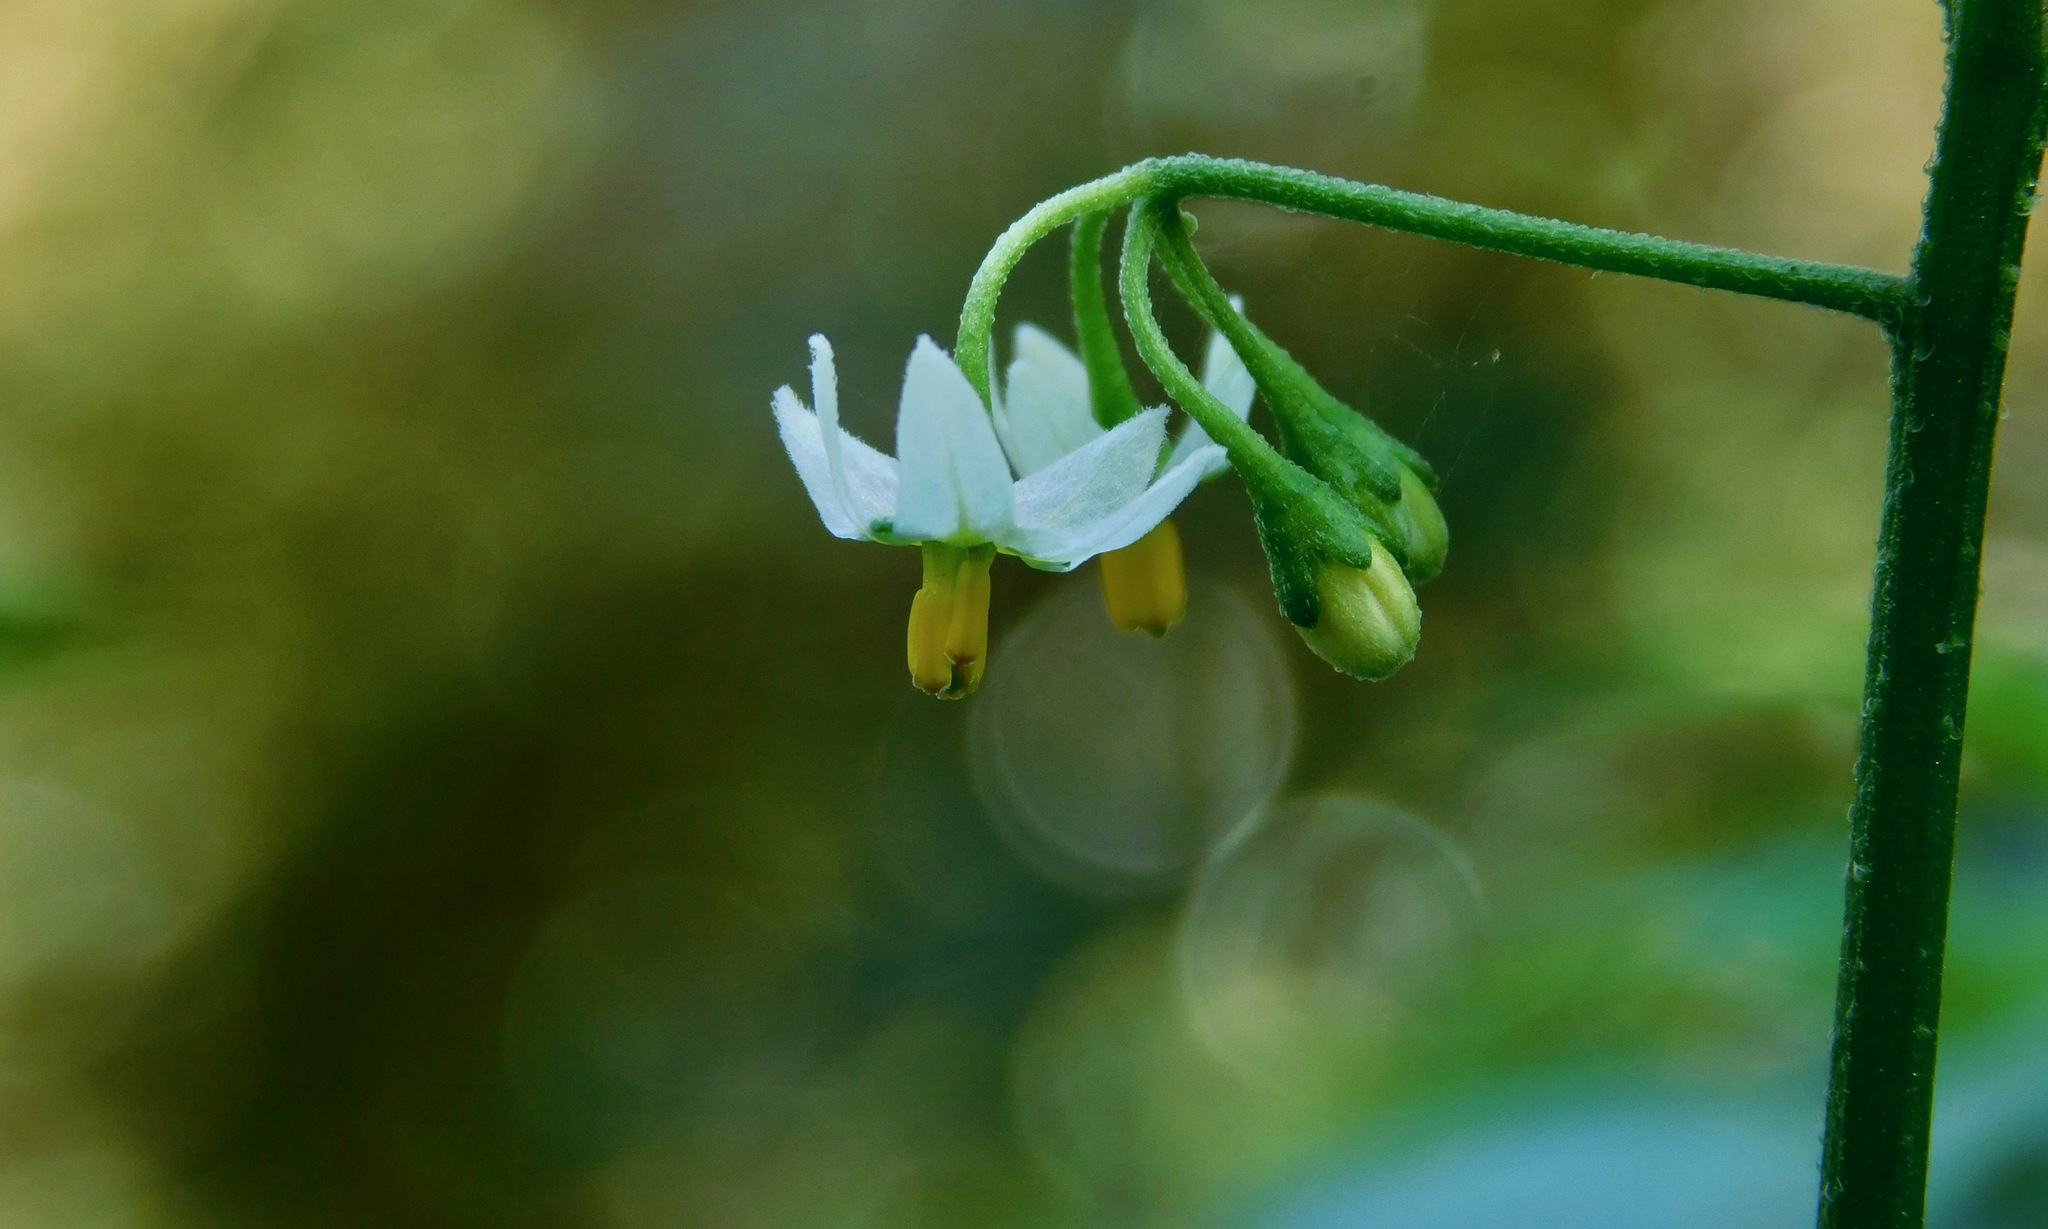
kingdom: Plantae
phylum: Tracheophyta
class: Magnoliopsida
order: Solanales
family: Solanaceae
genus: Solanum
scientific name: Solanum emulans
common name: Eastern black nightshade
